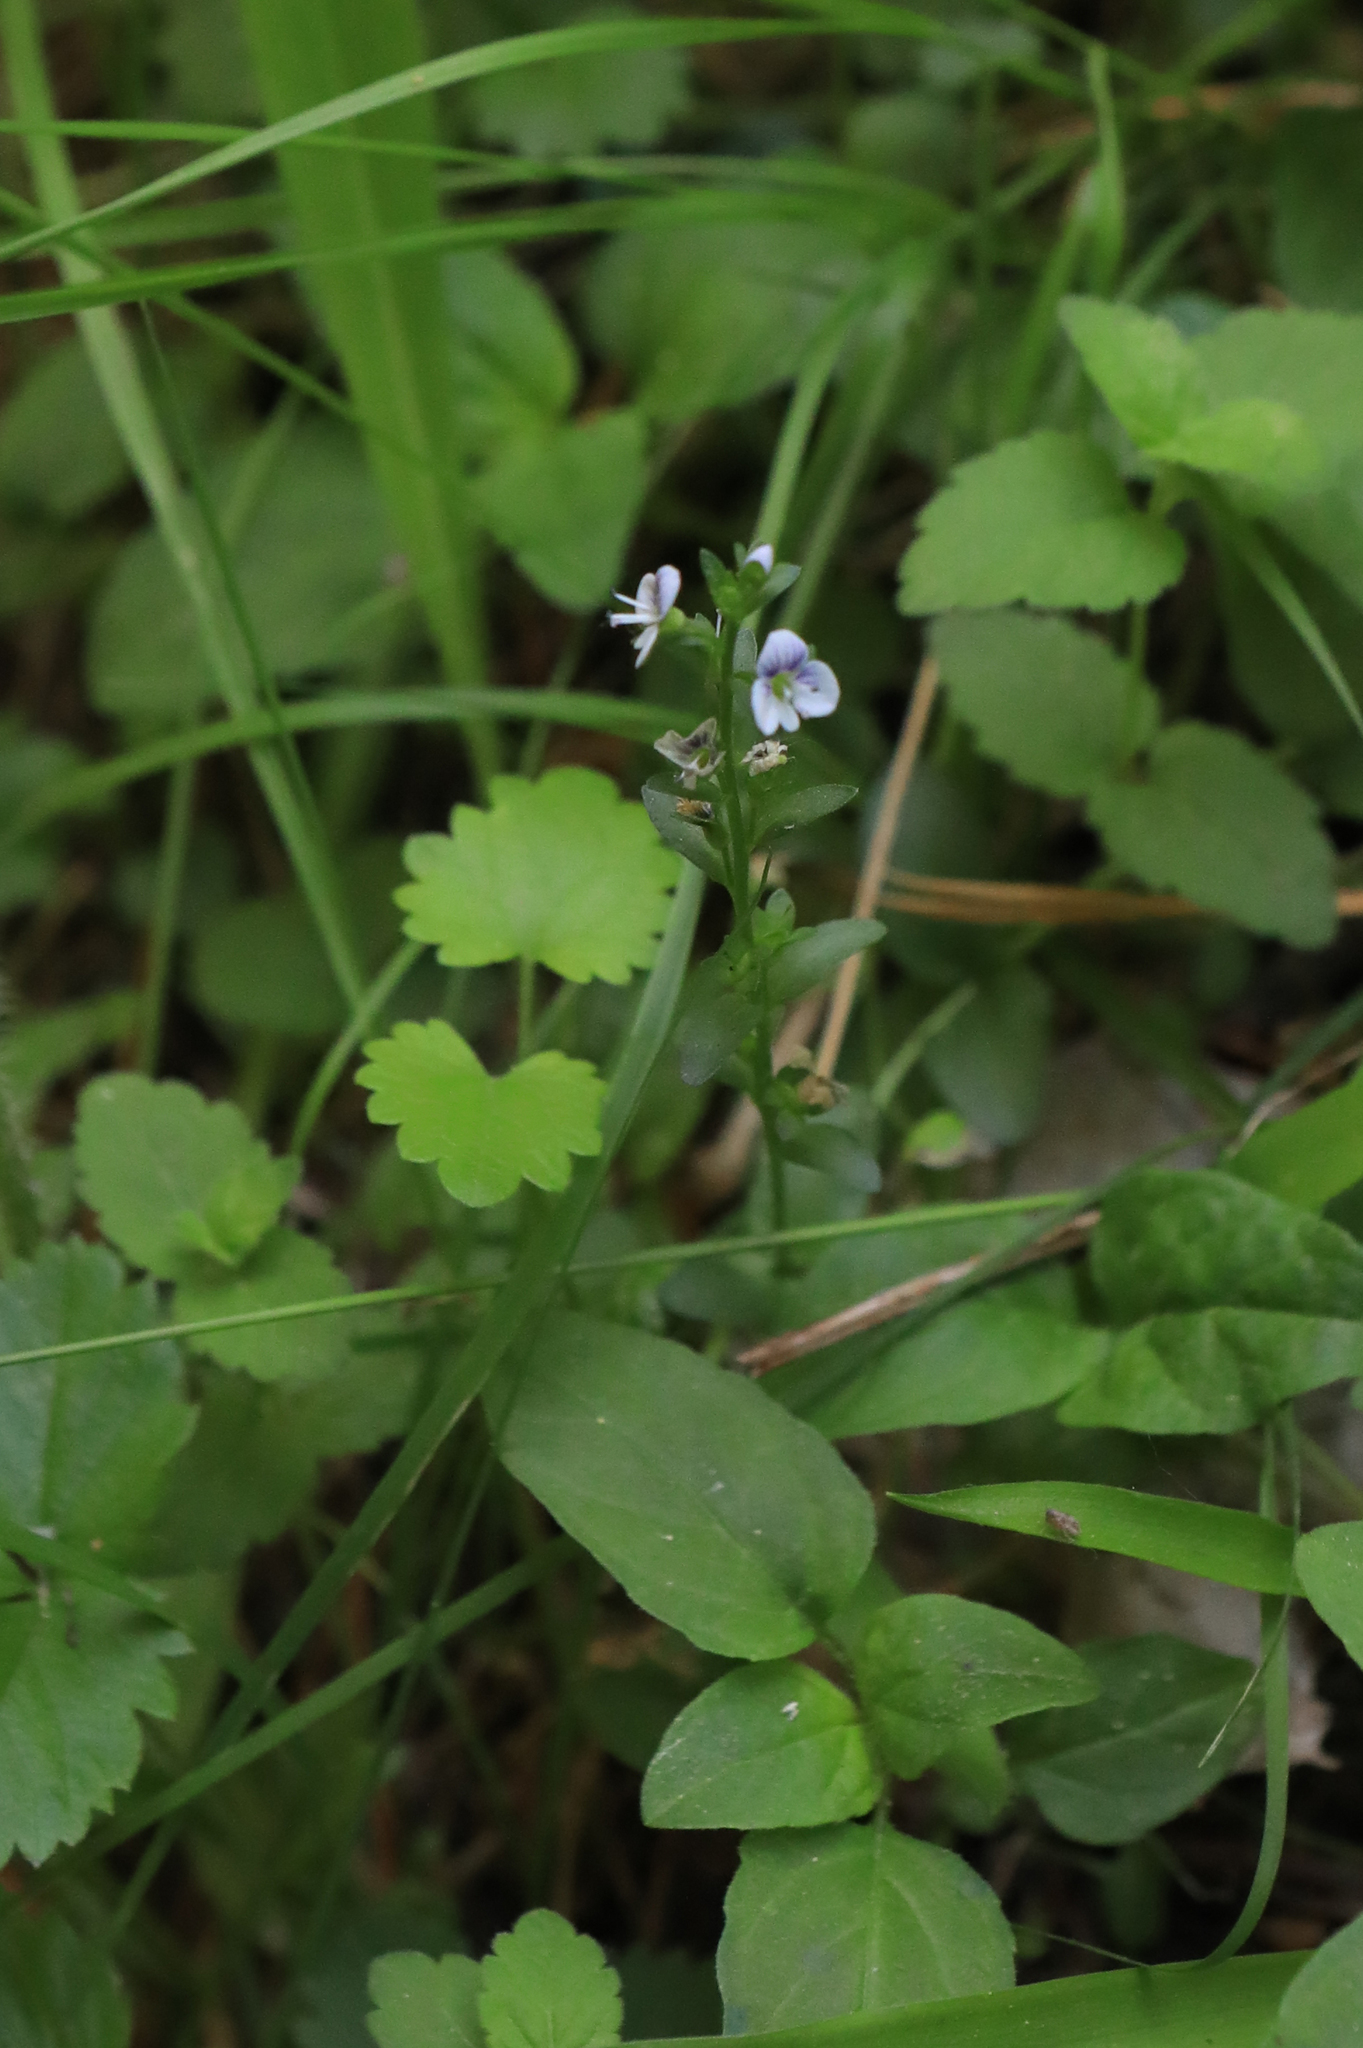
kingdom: Plantae
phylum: Tracheophyta
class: Magnoliopsida
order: Lamiales
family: Plantaginaceae
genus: Veronica
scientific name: Veronica serpyllifolia
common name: Thyme-leaved speedwell
